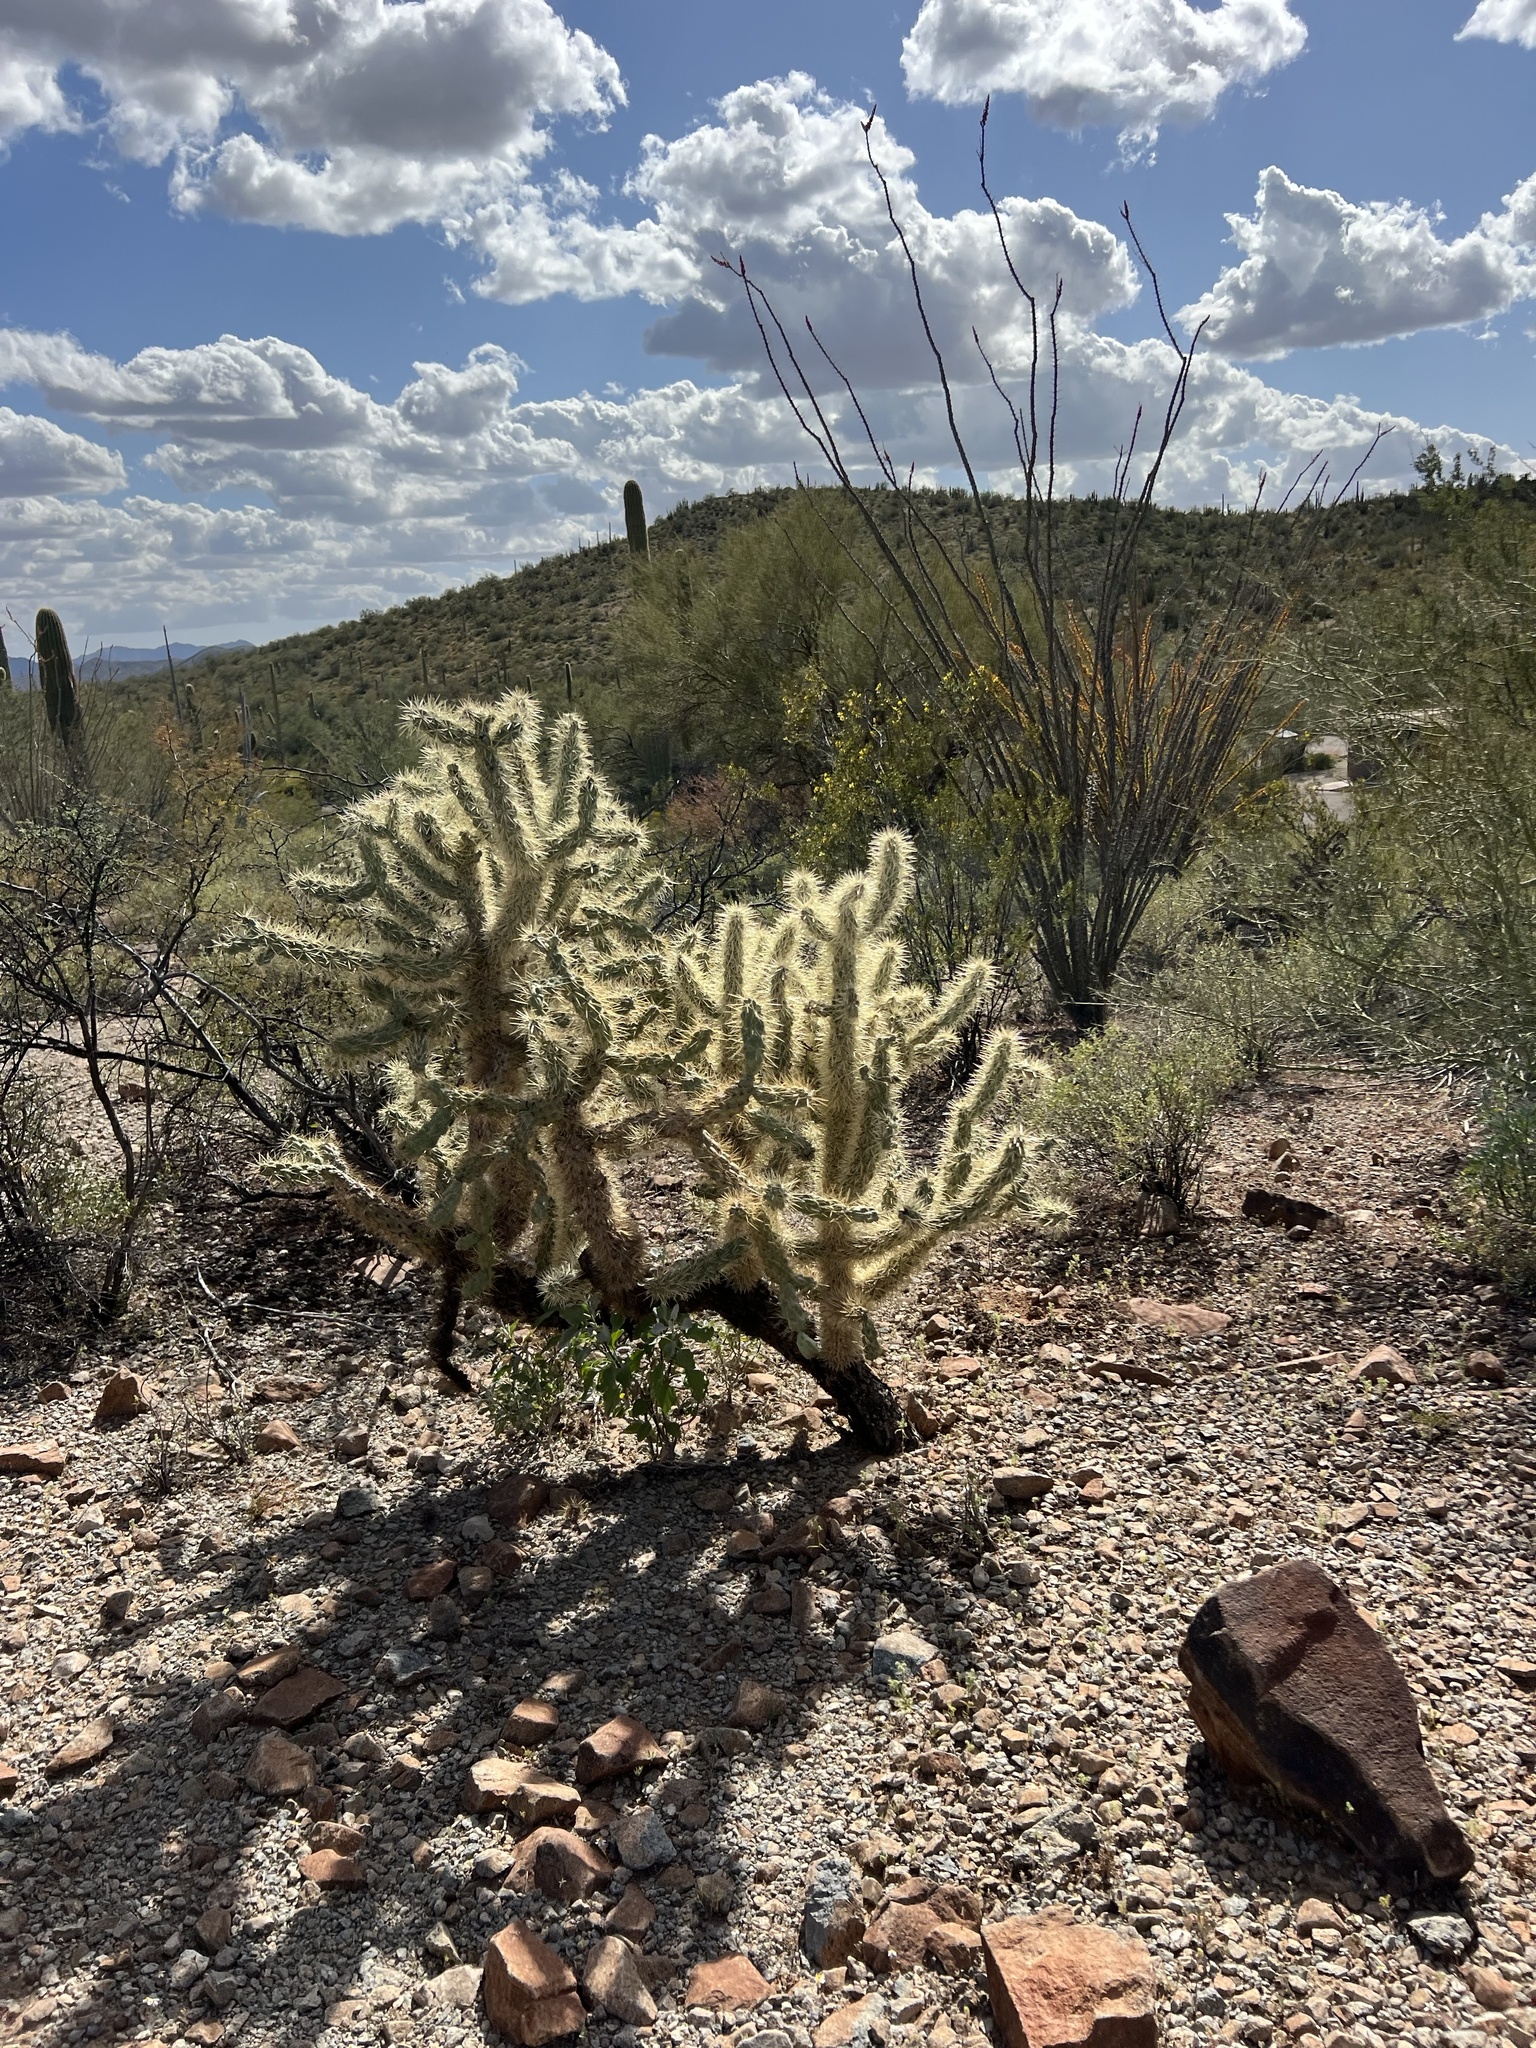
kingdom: Plantae
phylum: Tracheophyta
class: Magnoliopsida
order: Caryophyllales
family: Cactaceae
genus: Cylindropuntia
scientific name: Cylindropuntia fulgida
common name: Jumping cholla
